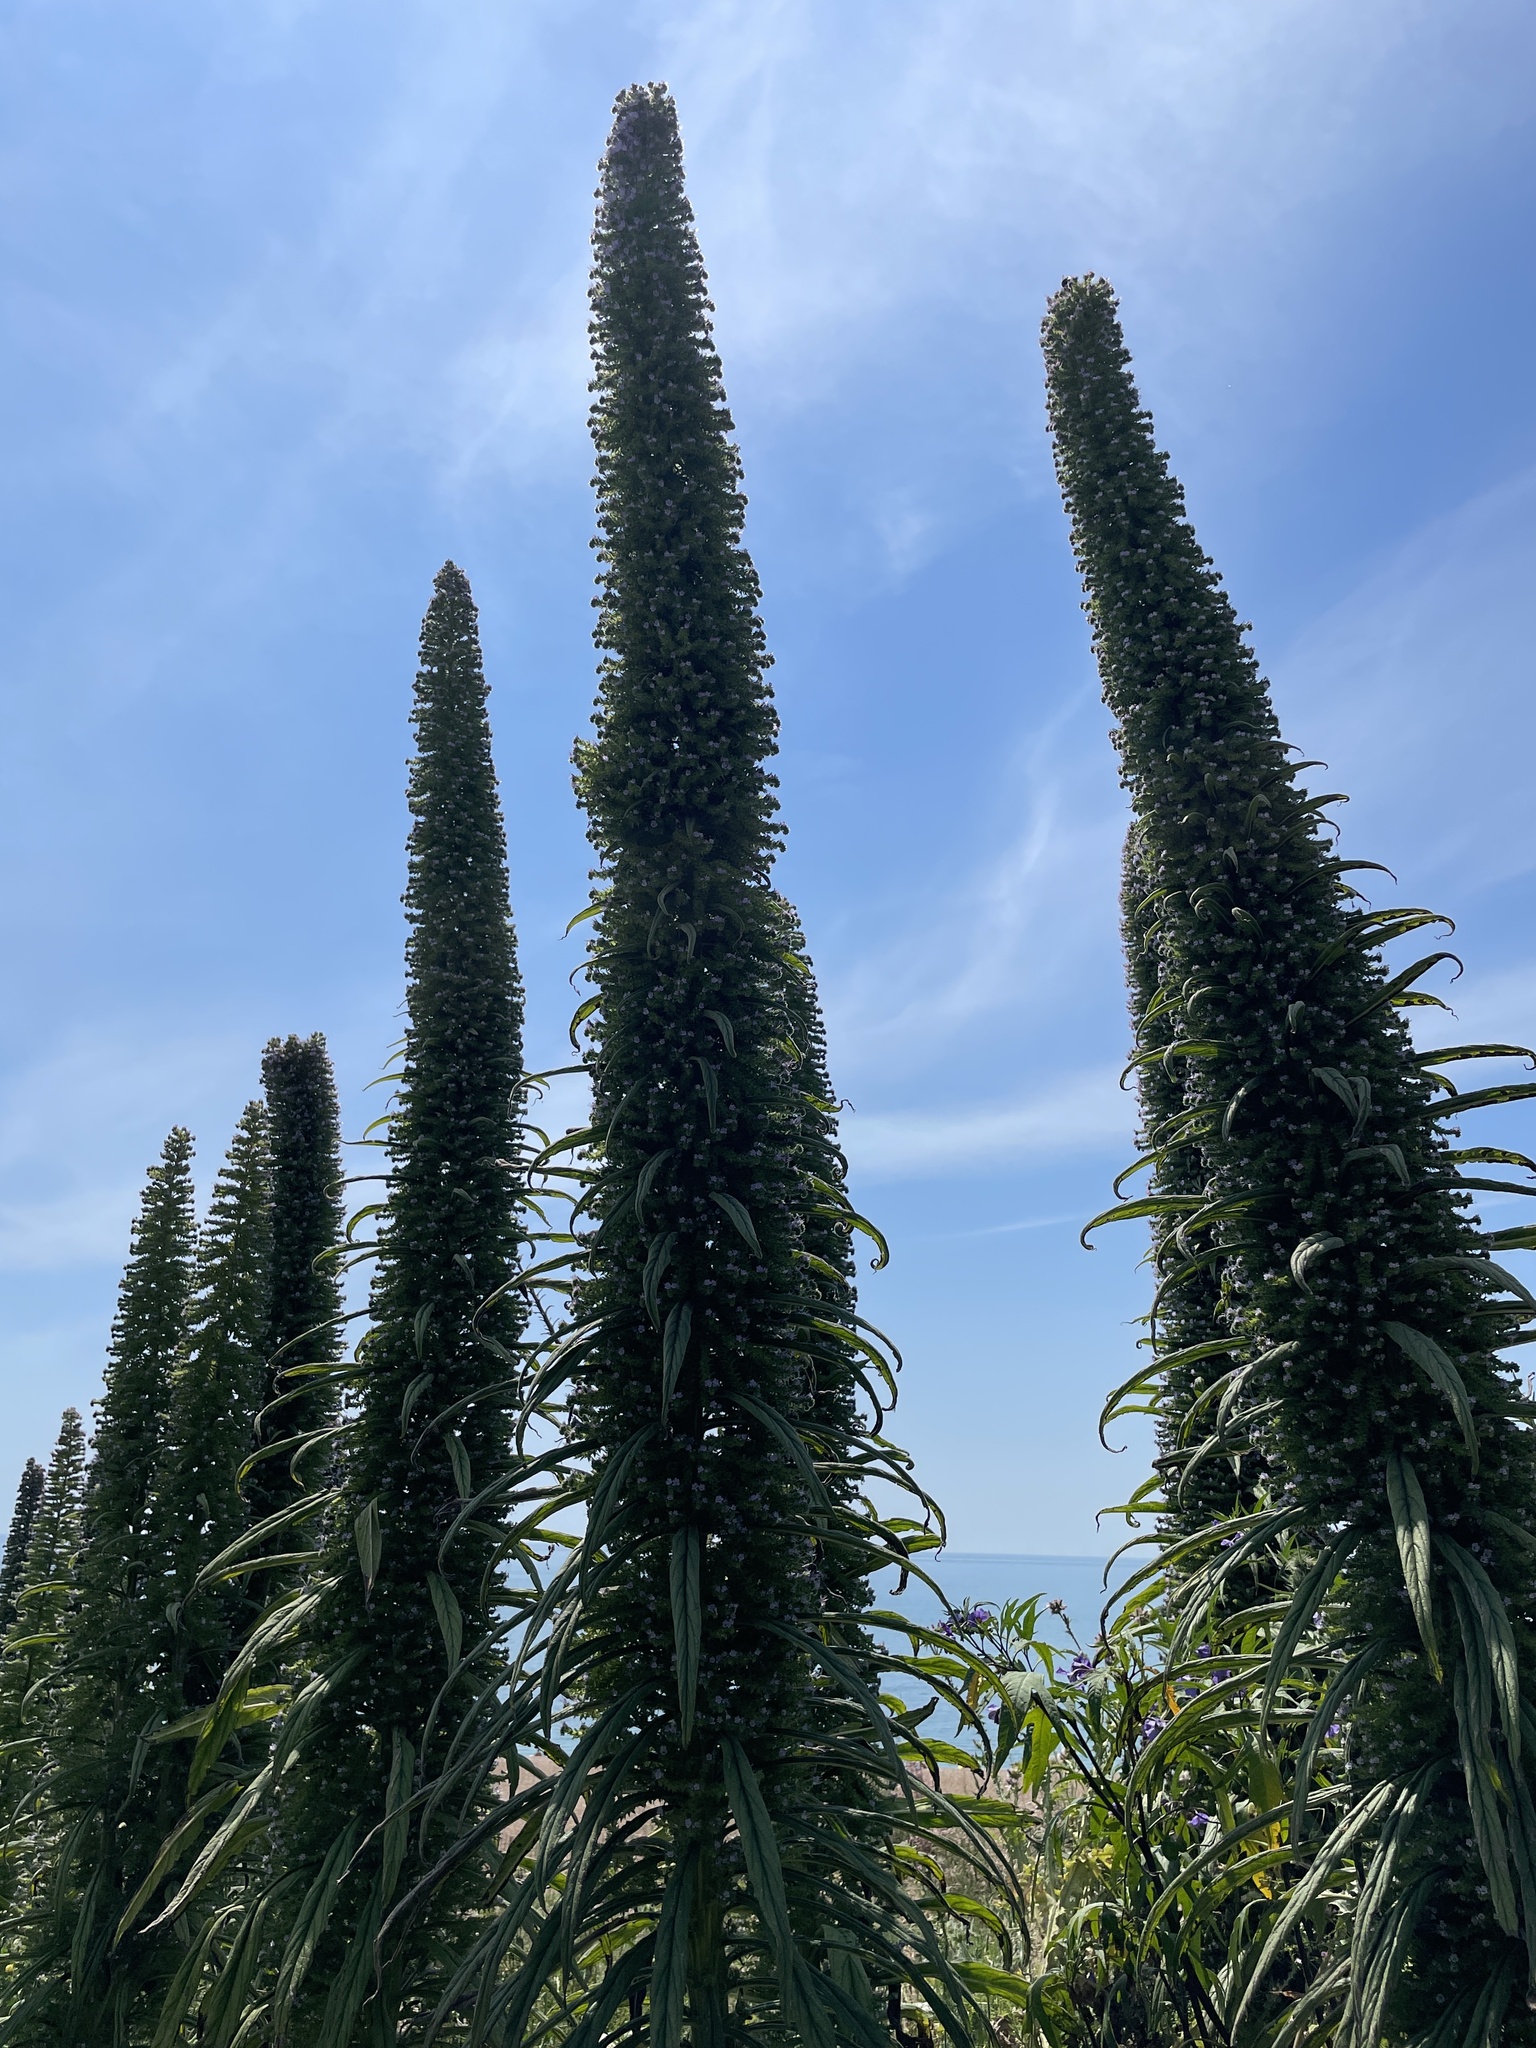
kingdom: Plantae
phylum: Tracheophyta
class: Magnoliopsida
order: Boraginales
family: Boraginaceae
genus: Echium
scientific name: Echium pininana
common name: Giant viper's-bugloss
